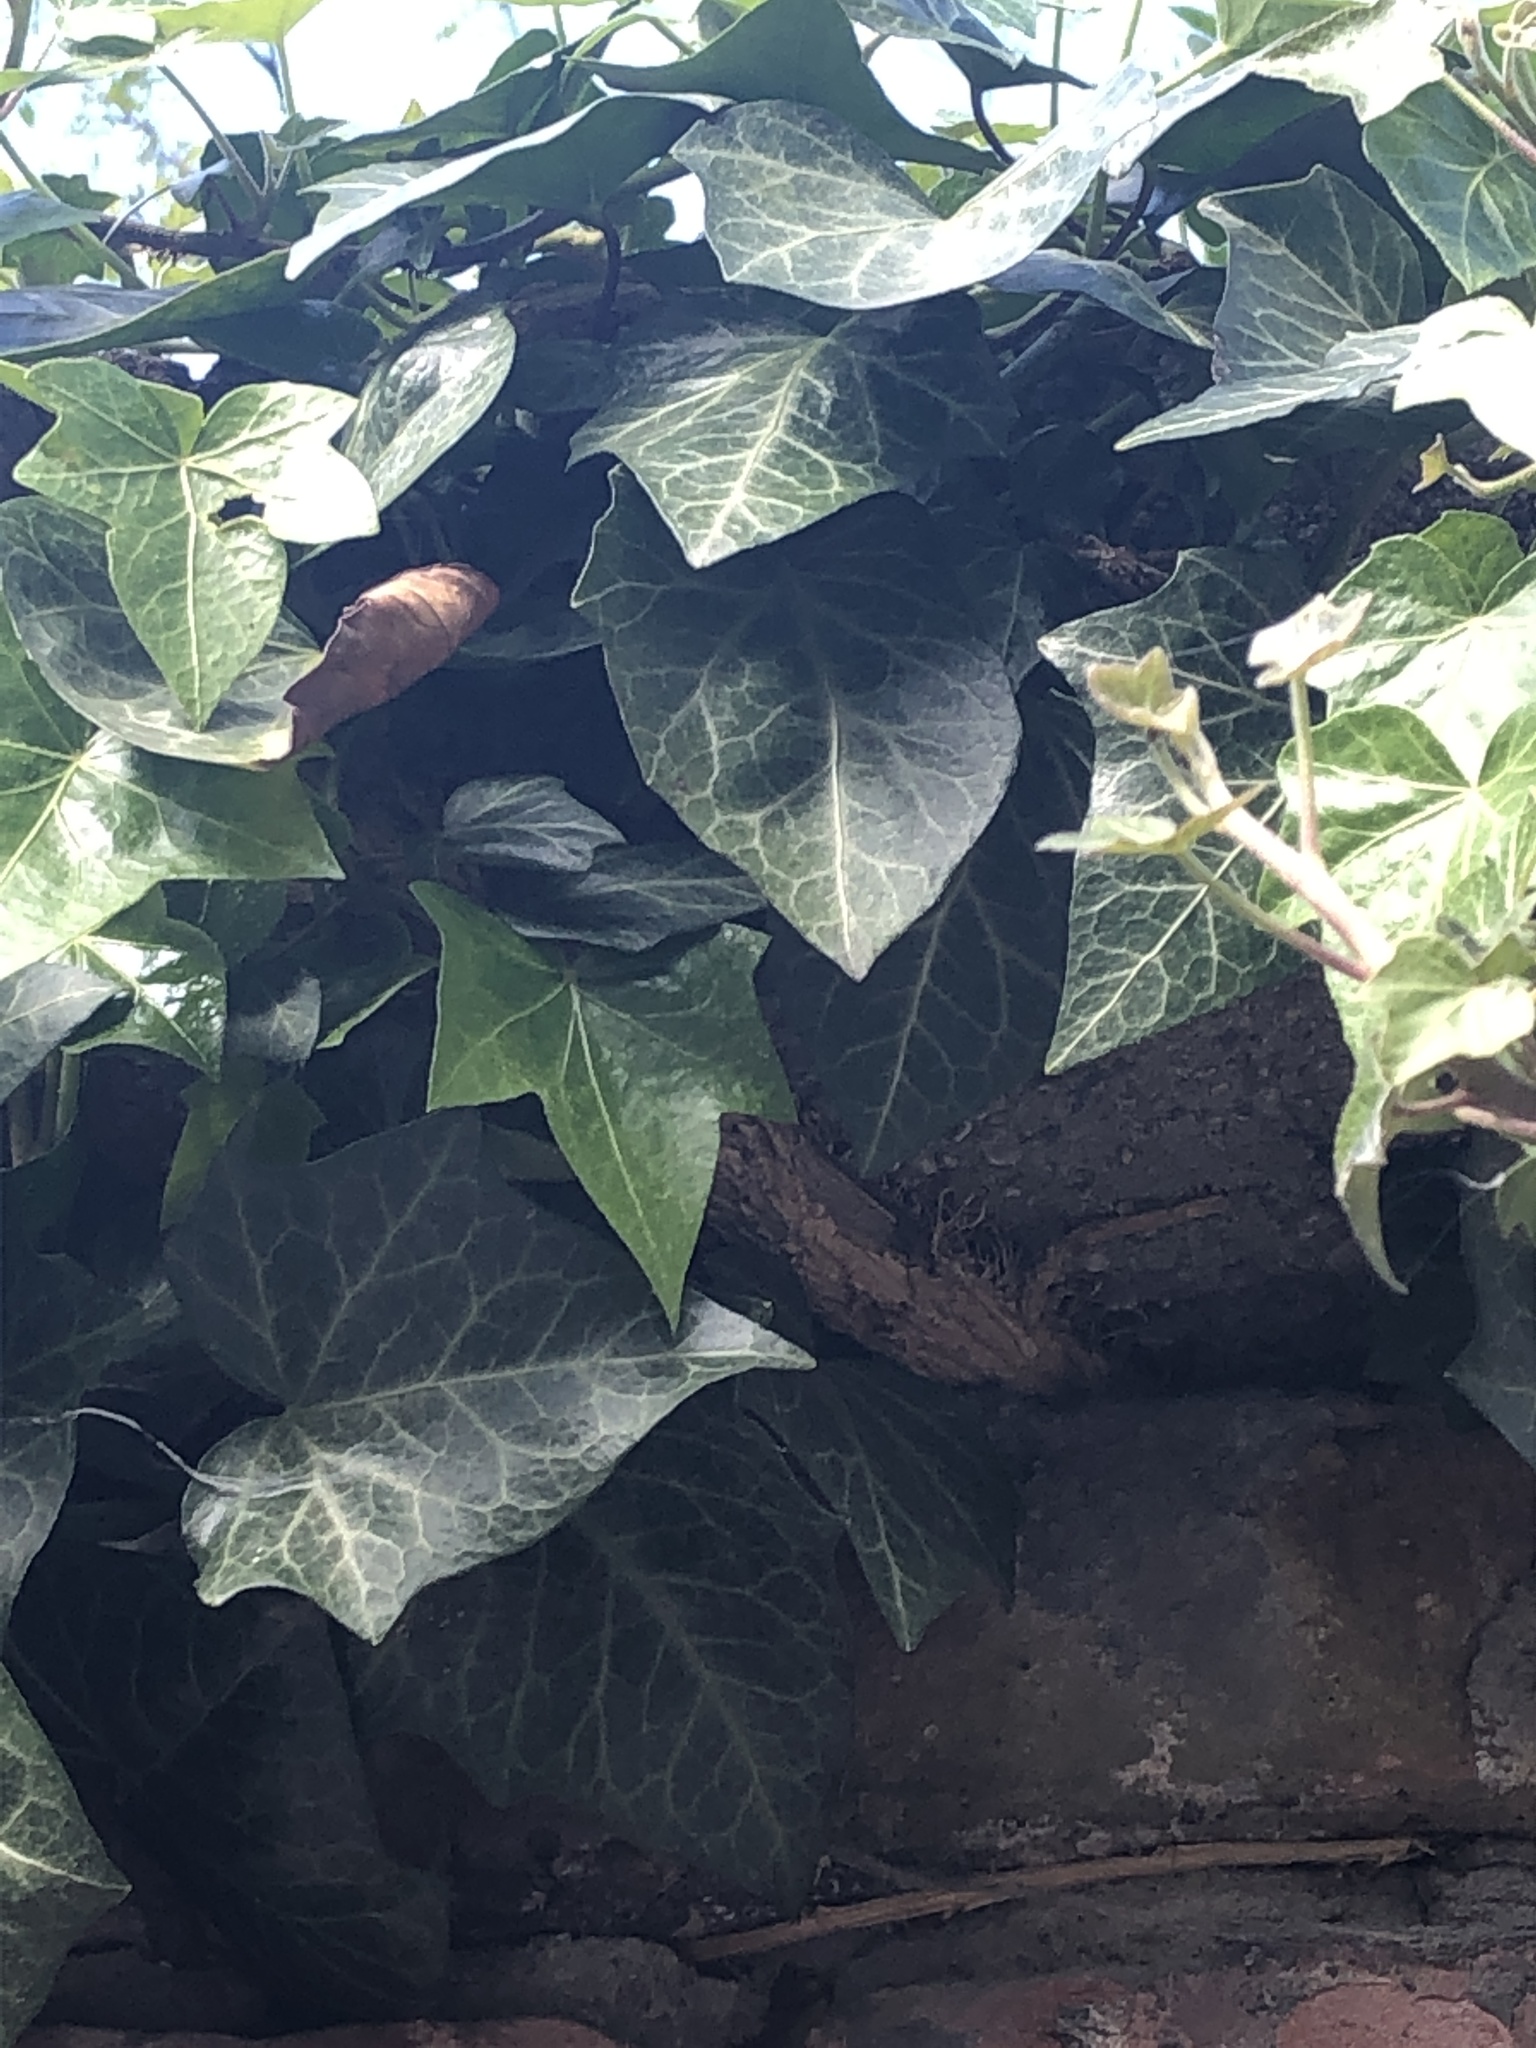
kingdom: Plantae
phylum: Tracheophyta
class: Magnoliopsida
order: Apiales
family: Araliaceae
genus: Hedera
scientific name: Hedera helix
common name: Ivy
